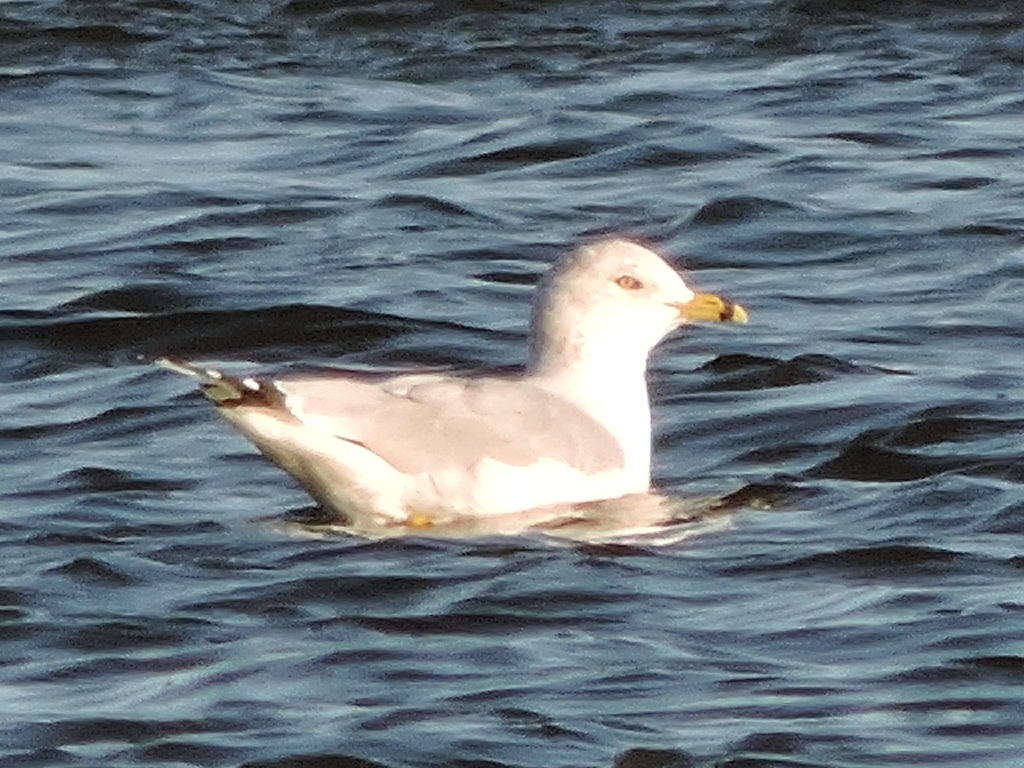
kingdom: Animalia
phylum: Chordata
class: Aves
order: Charadriiformes
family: Laridae
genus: Larus
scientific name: Larus delawarensis
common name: Ring-billed gull
